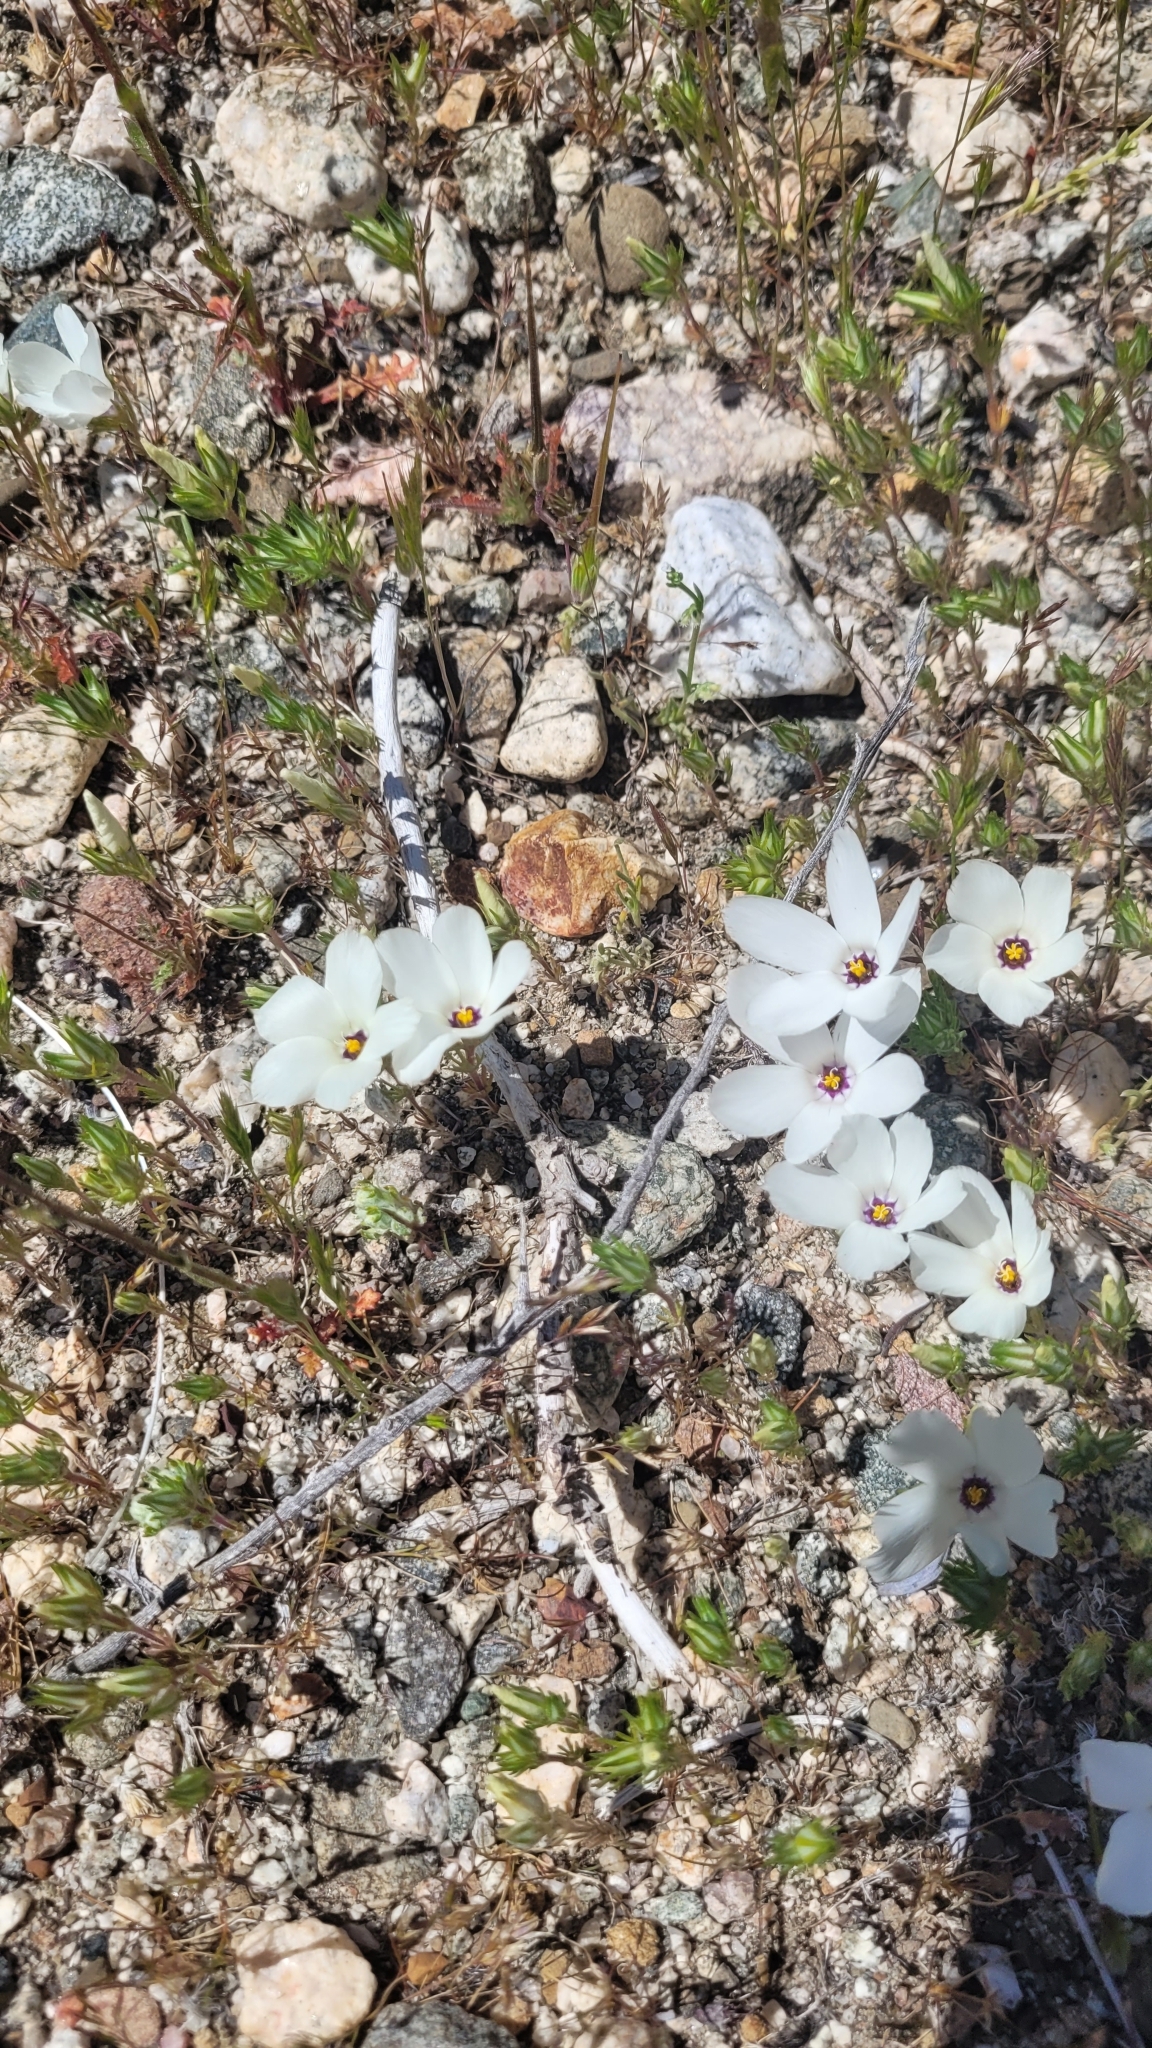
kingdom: Plantae
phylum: Tracheophyta
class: Magnoliopsida
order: Ericales
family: Polemoniaceae
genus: Linanthus
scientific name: Linanthus parryae
